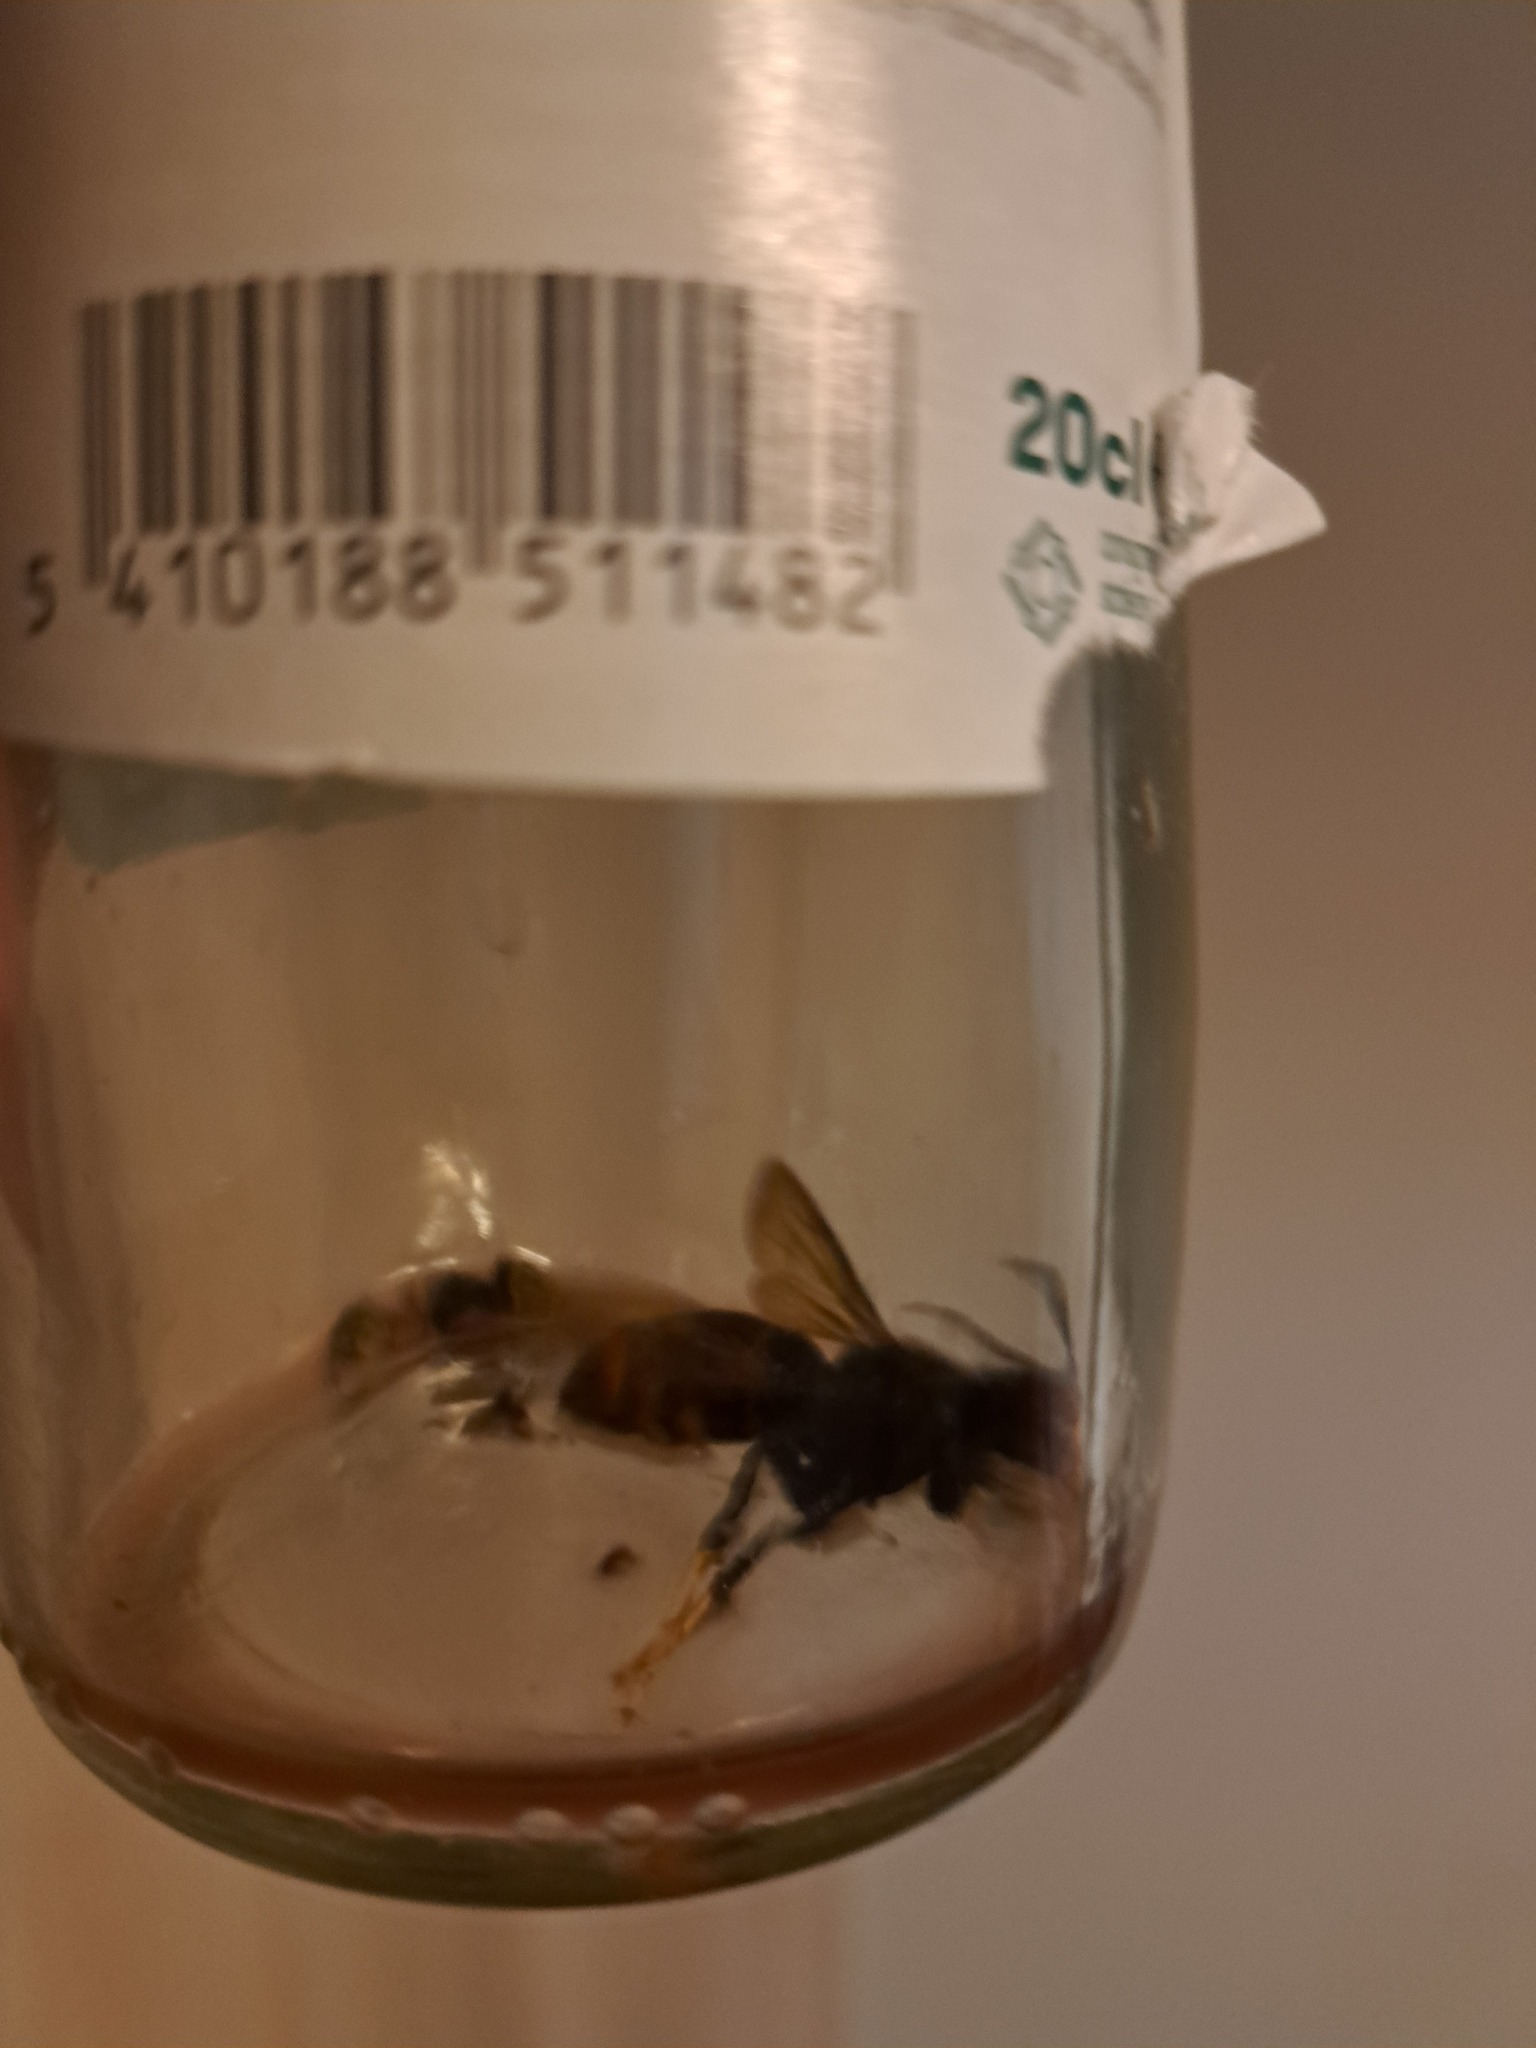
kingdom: Animalia
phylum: Arthropoda
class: Insecta
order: Hymenoptera
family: Vespidae
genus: Vespa
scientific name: Vespa velutina
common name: Asian hornet
